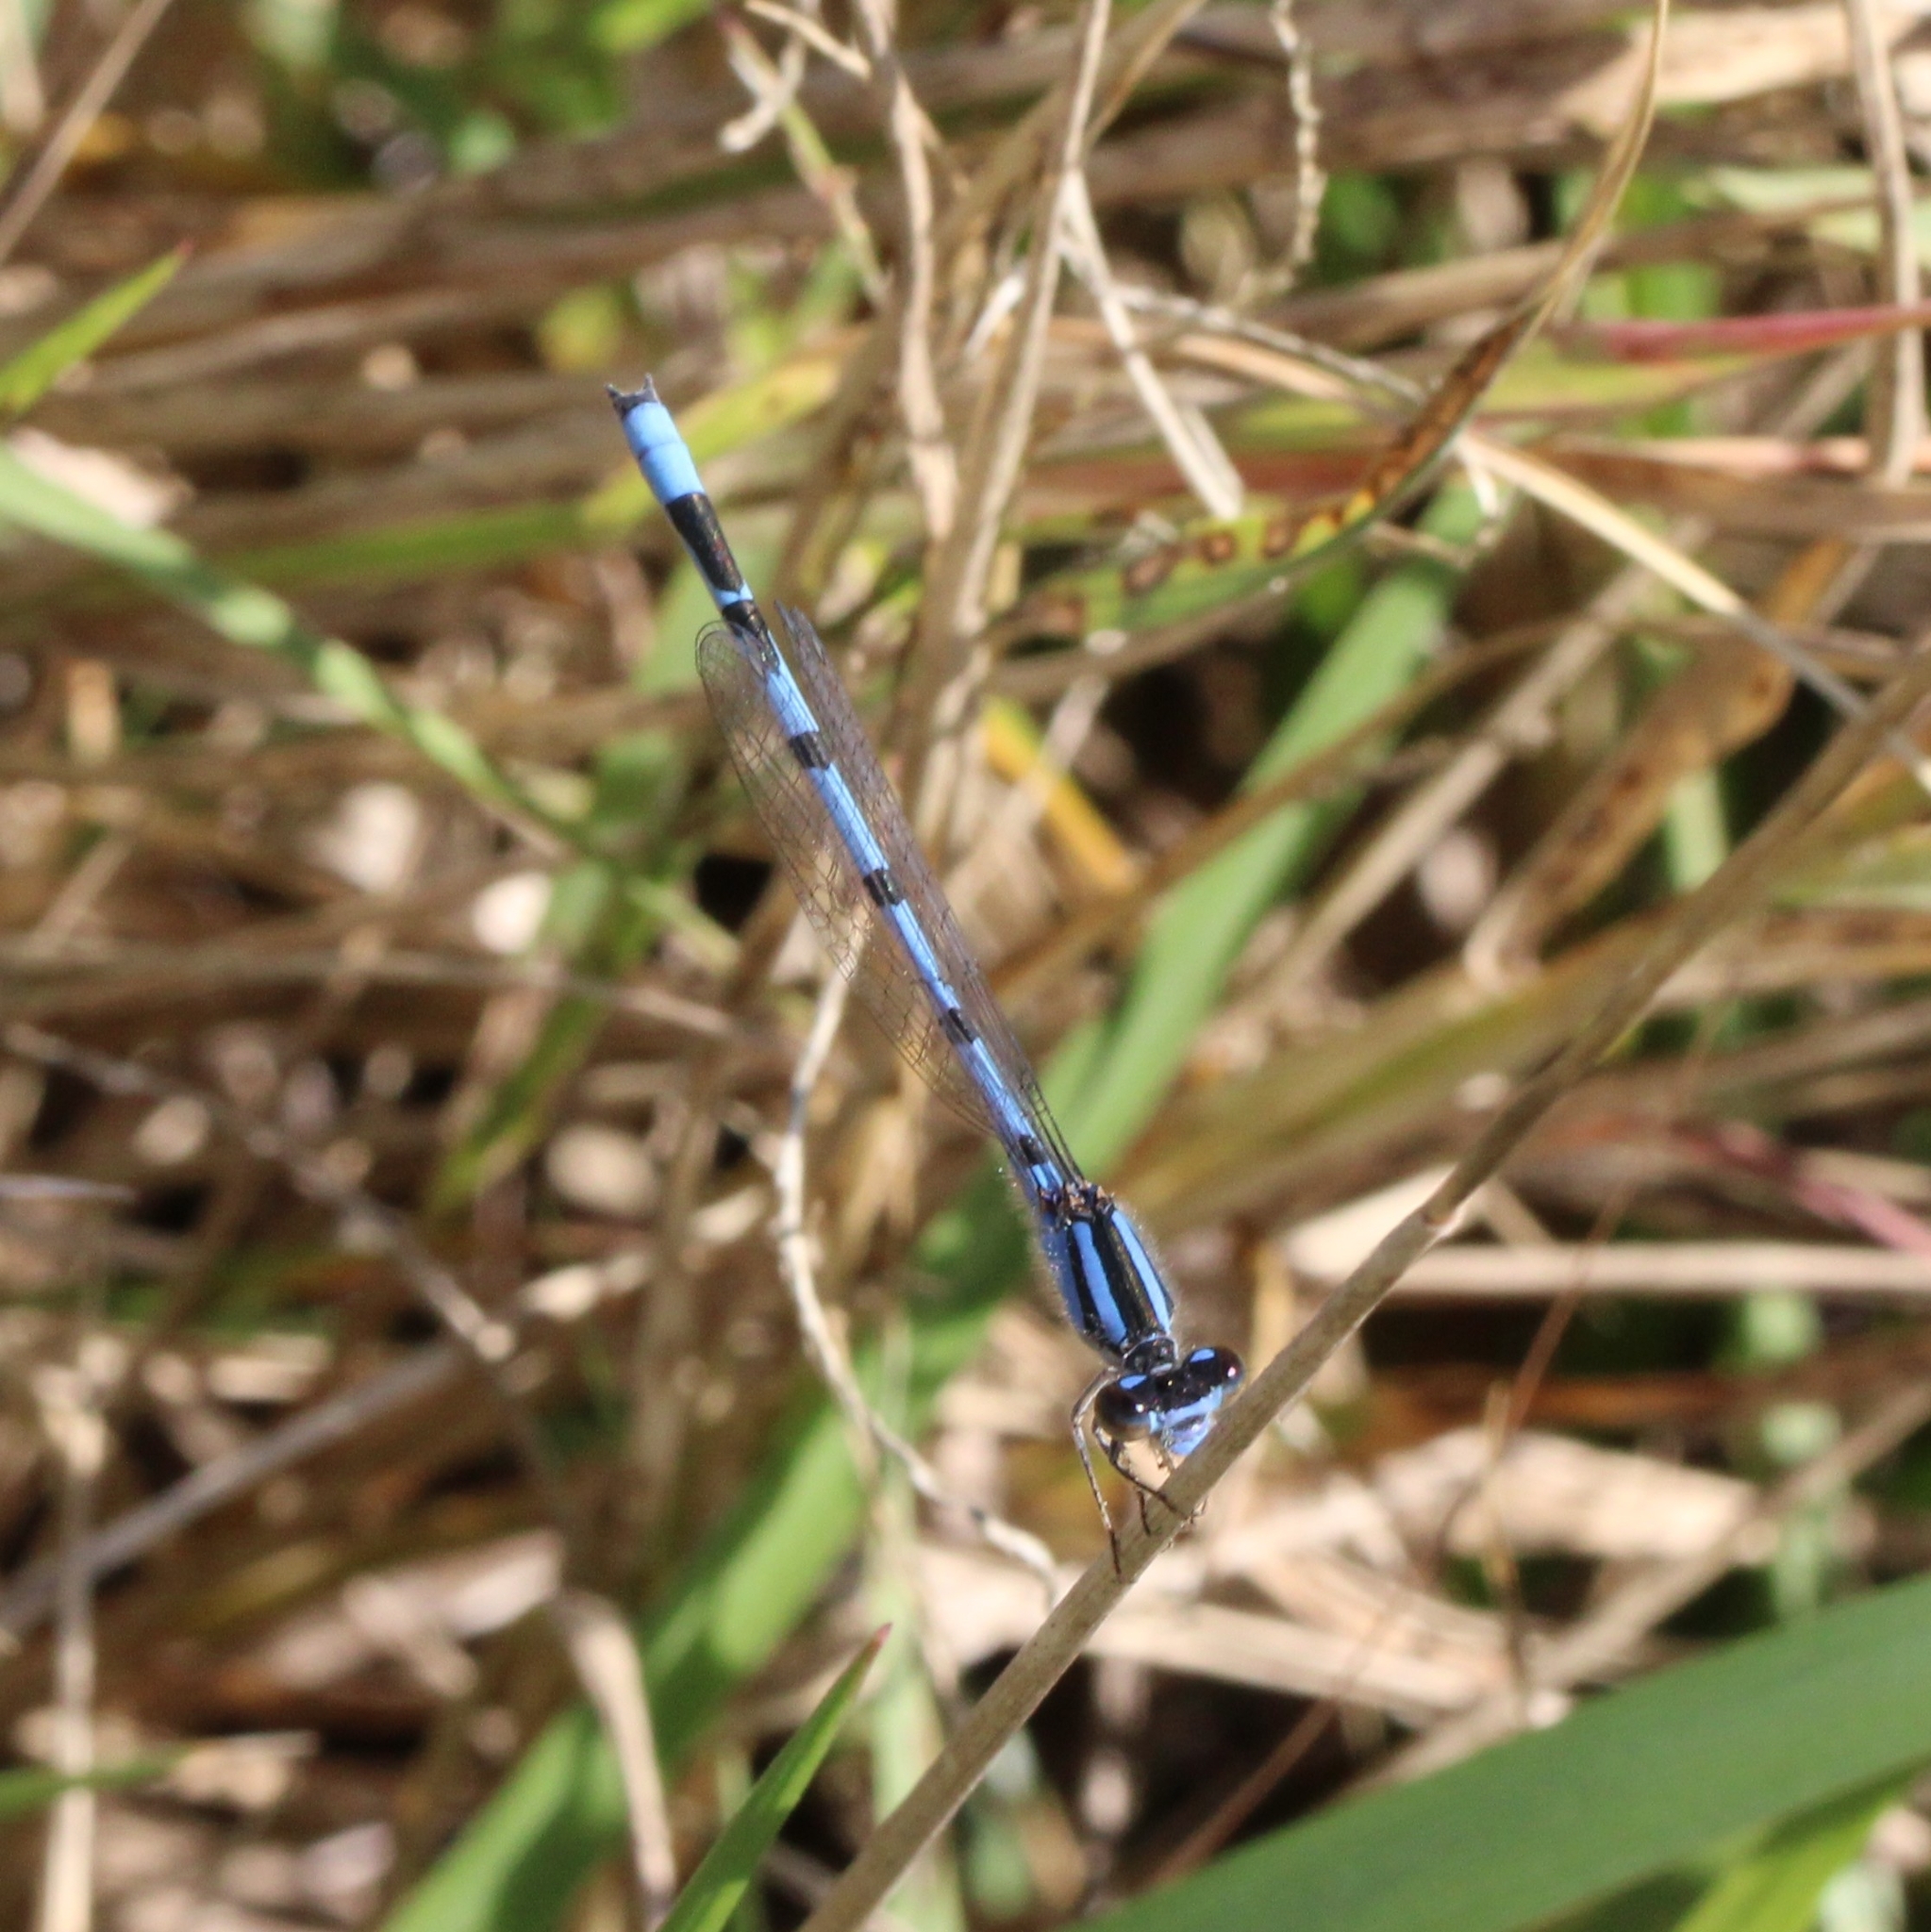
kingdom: Animalia
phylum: Arthropoda
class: Insecta
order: Odonata
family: Coenagrionidae
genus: Enallagma
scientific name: Enallagma civile
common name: Damselfly
